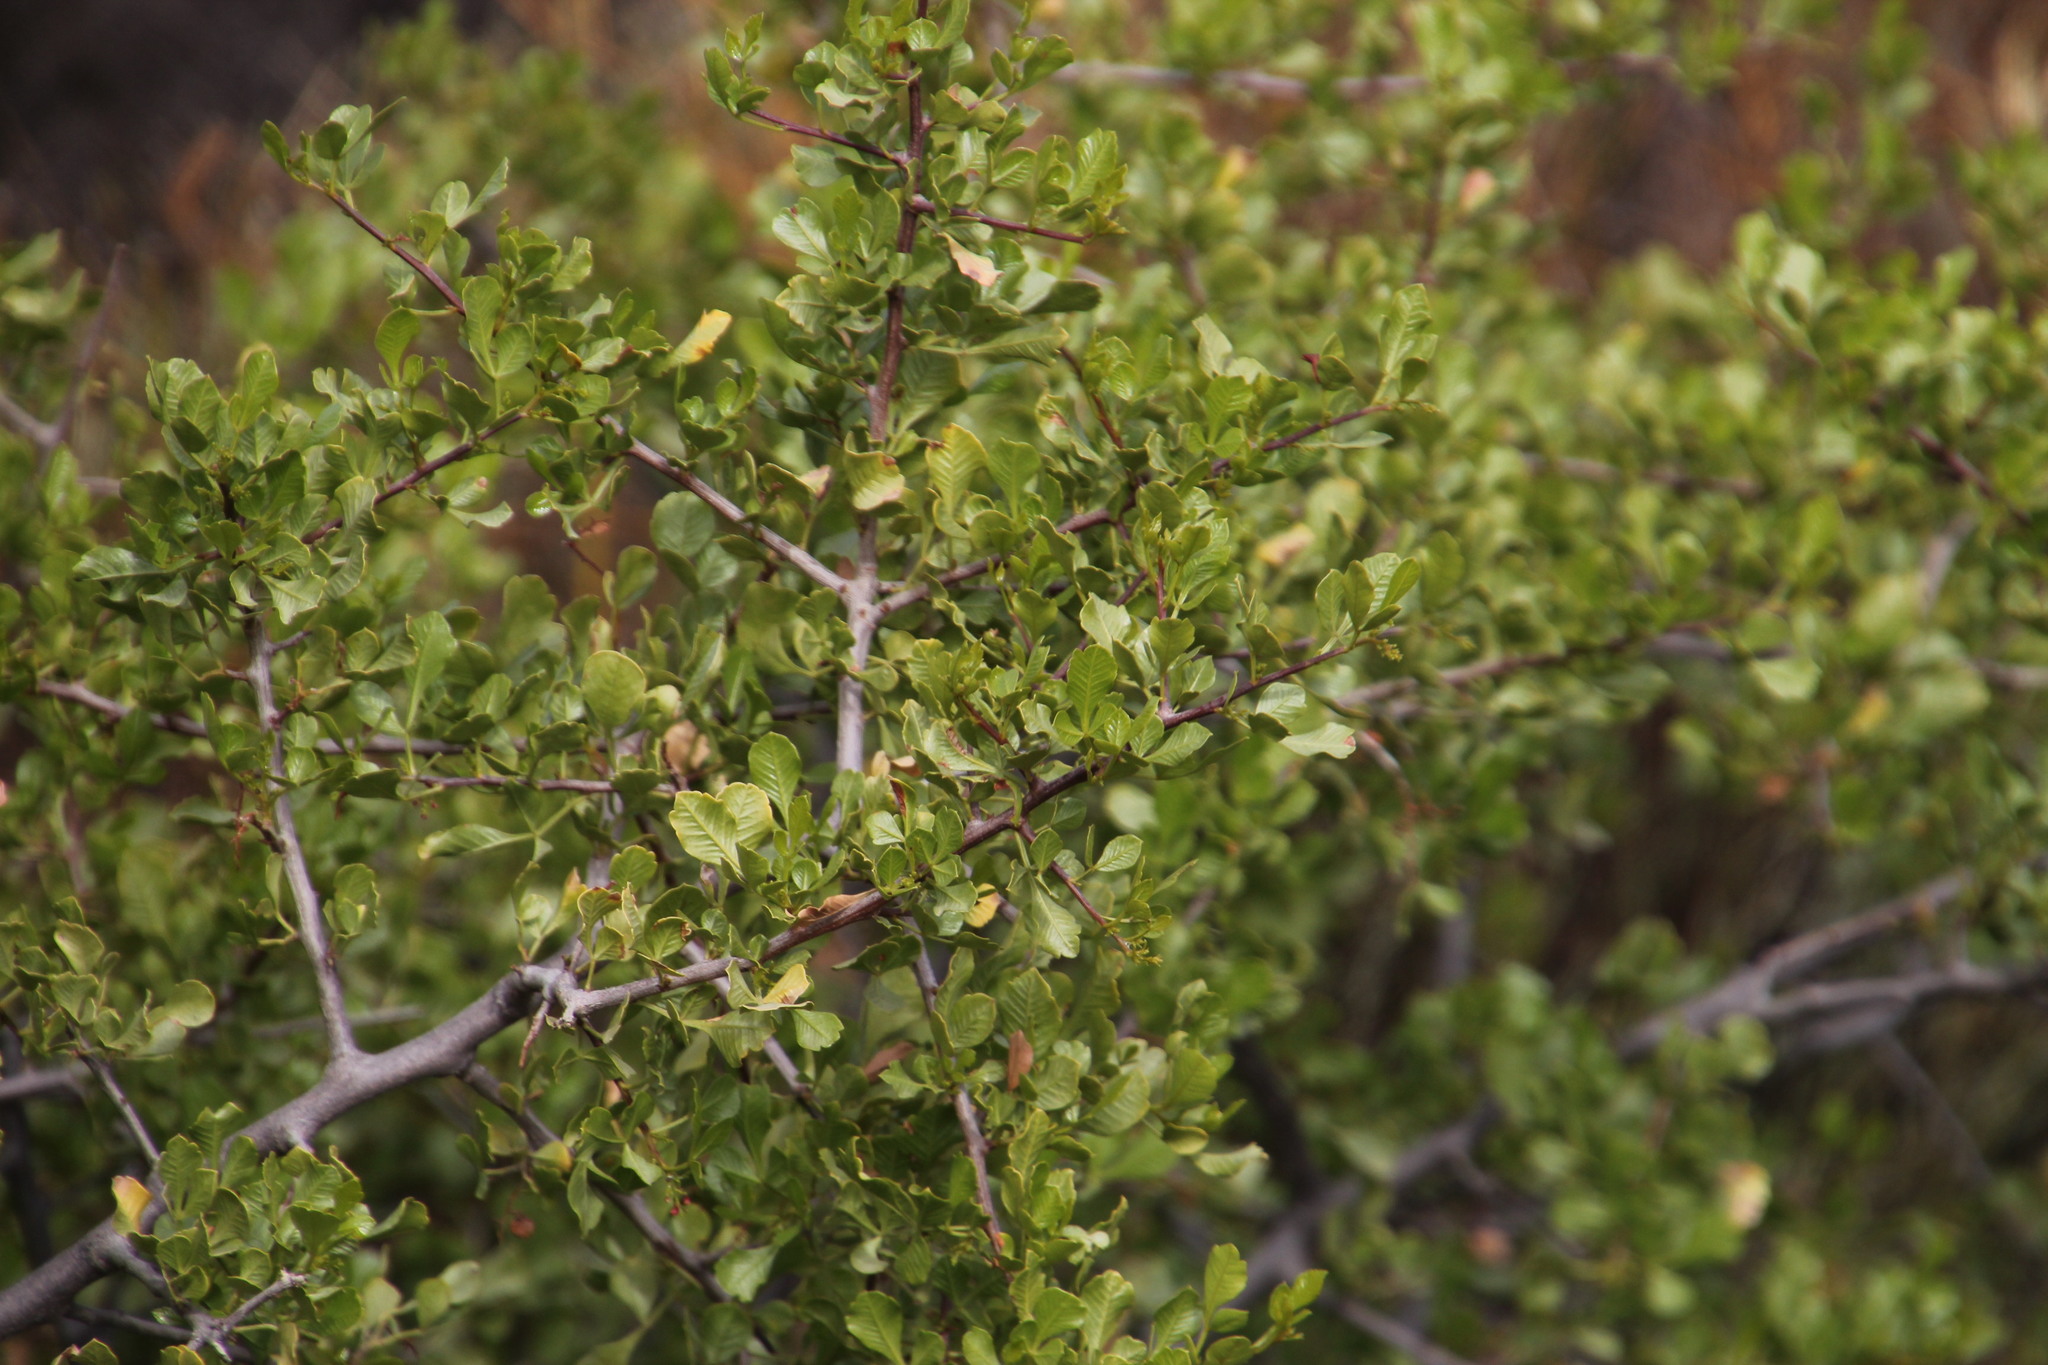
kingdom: Plantae
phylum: Tracheophyta
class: Magnoliopsida
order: Sapindales
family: Anacardiaceae
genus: Searsia
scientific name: Searsia undulata
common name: Namaqua kunibush
